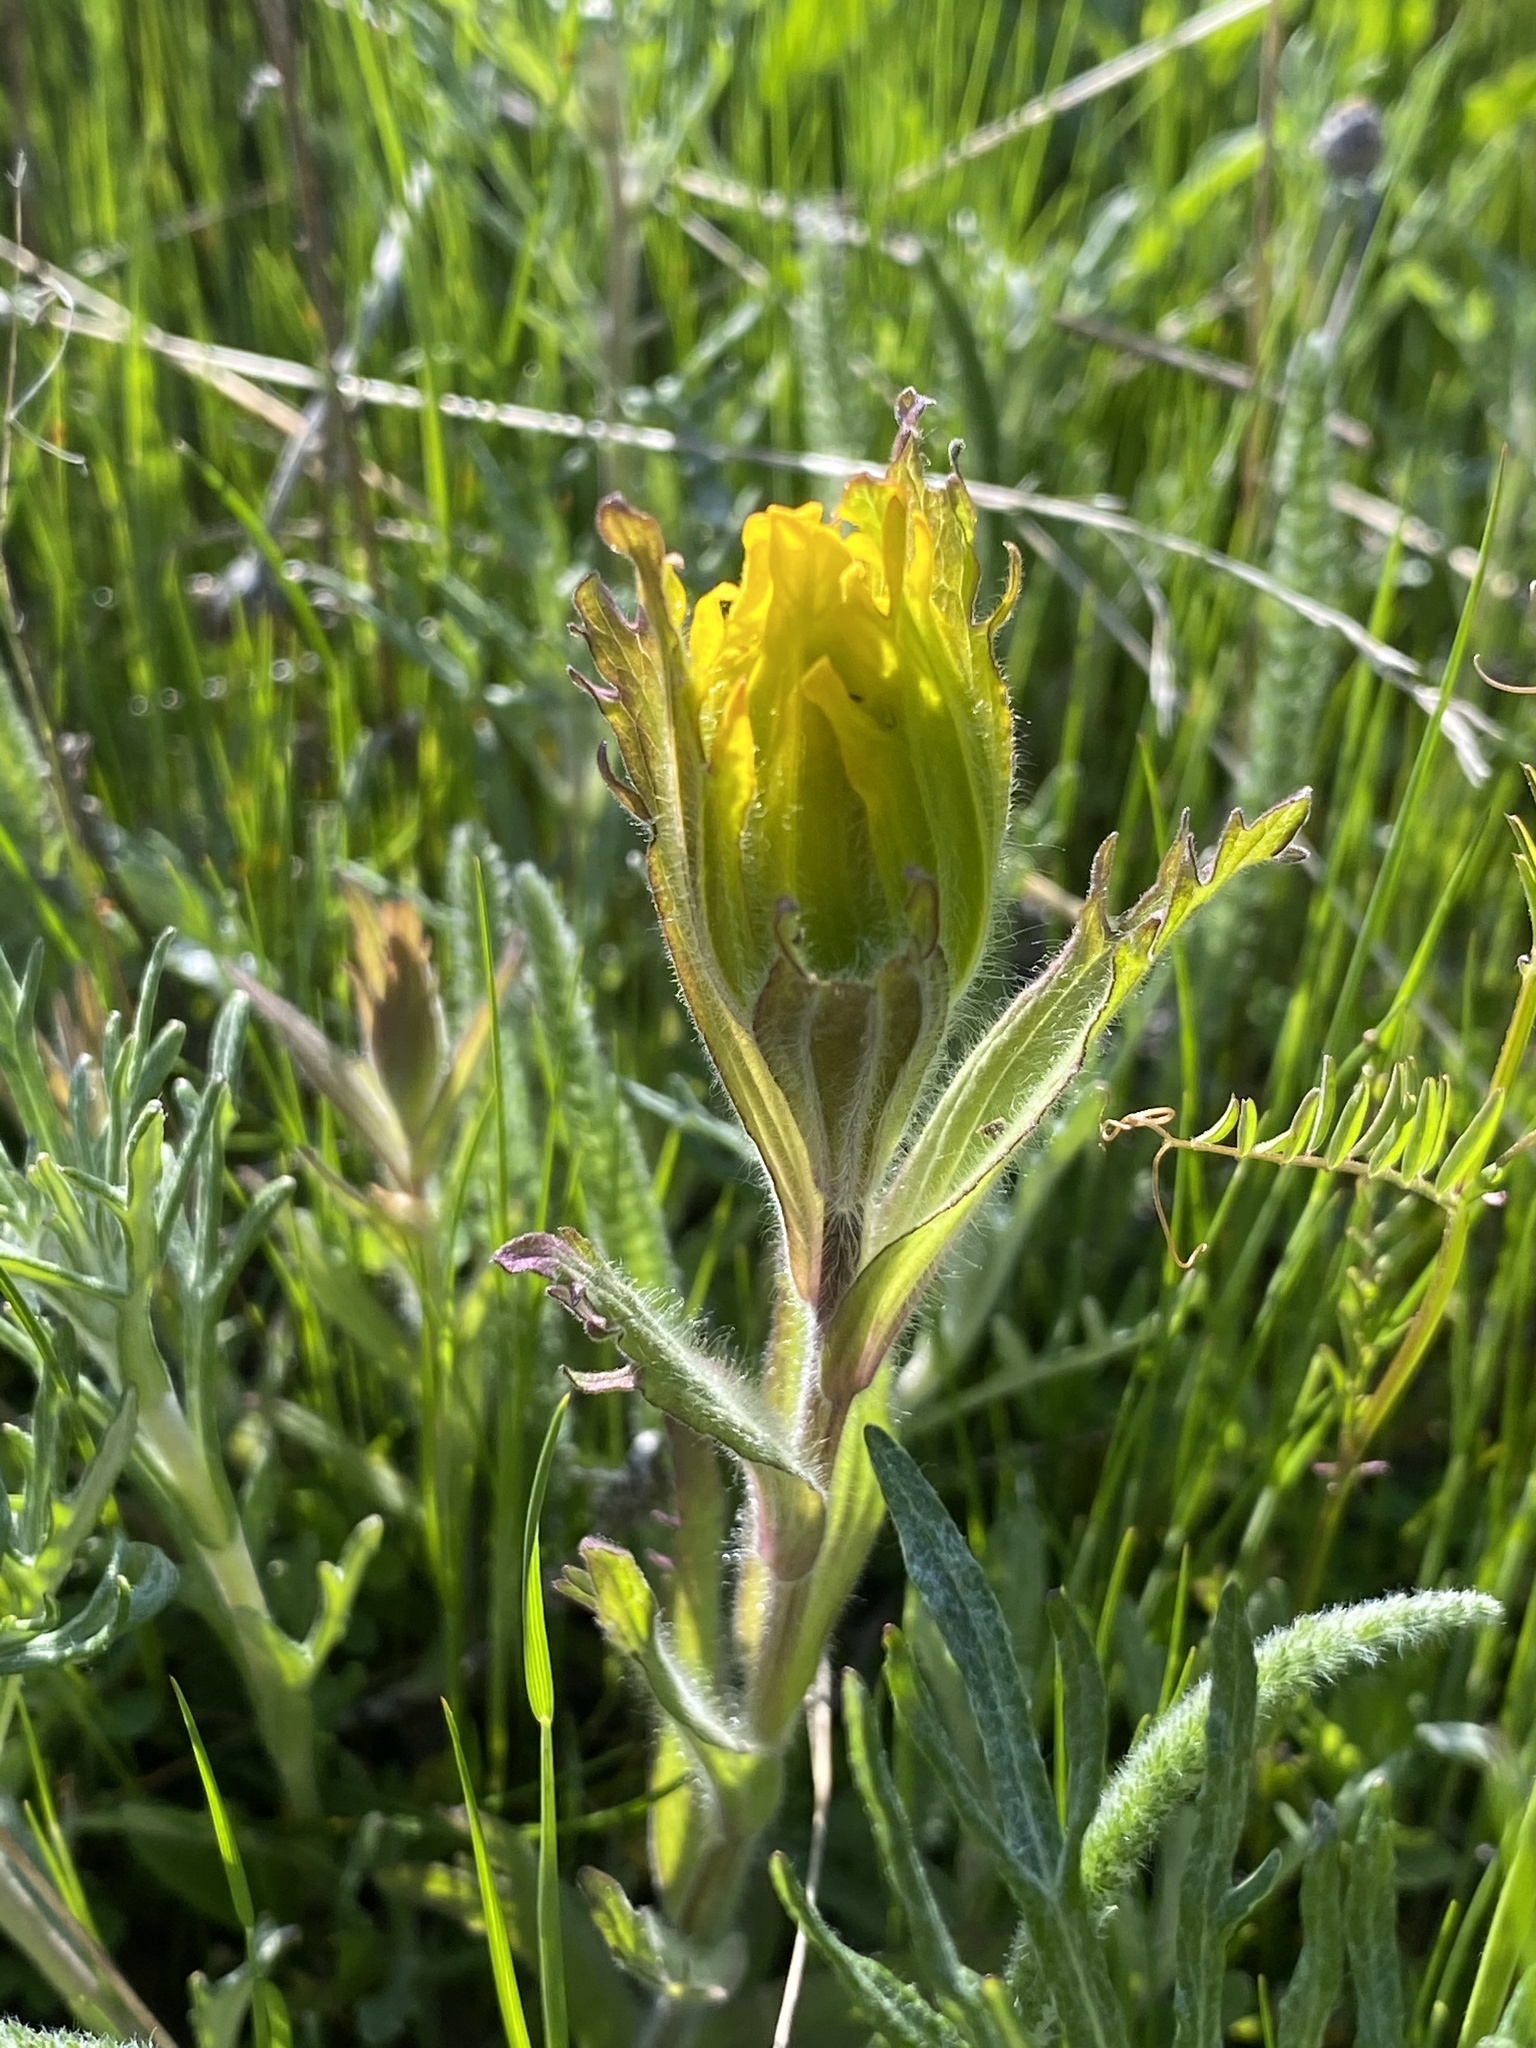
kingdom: Plantae
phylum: Tracheophyta
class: Magnoliopsida
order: Lamiales
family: Orobanchaceae
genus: Castilleja
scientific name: Castilleja levisecta
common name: Golden paintbrush
